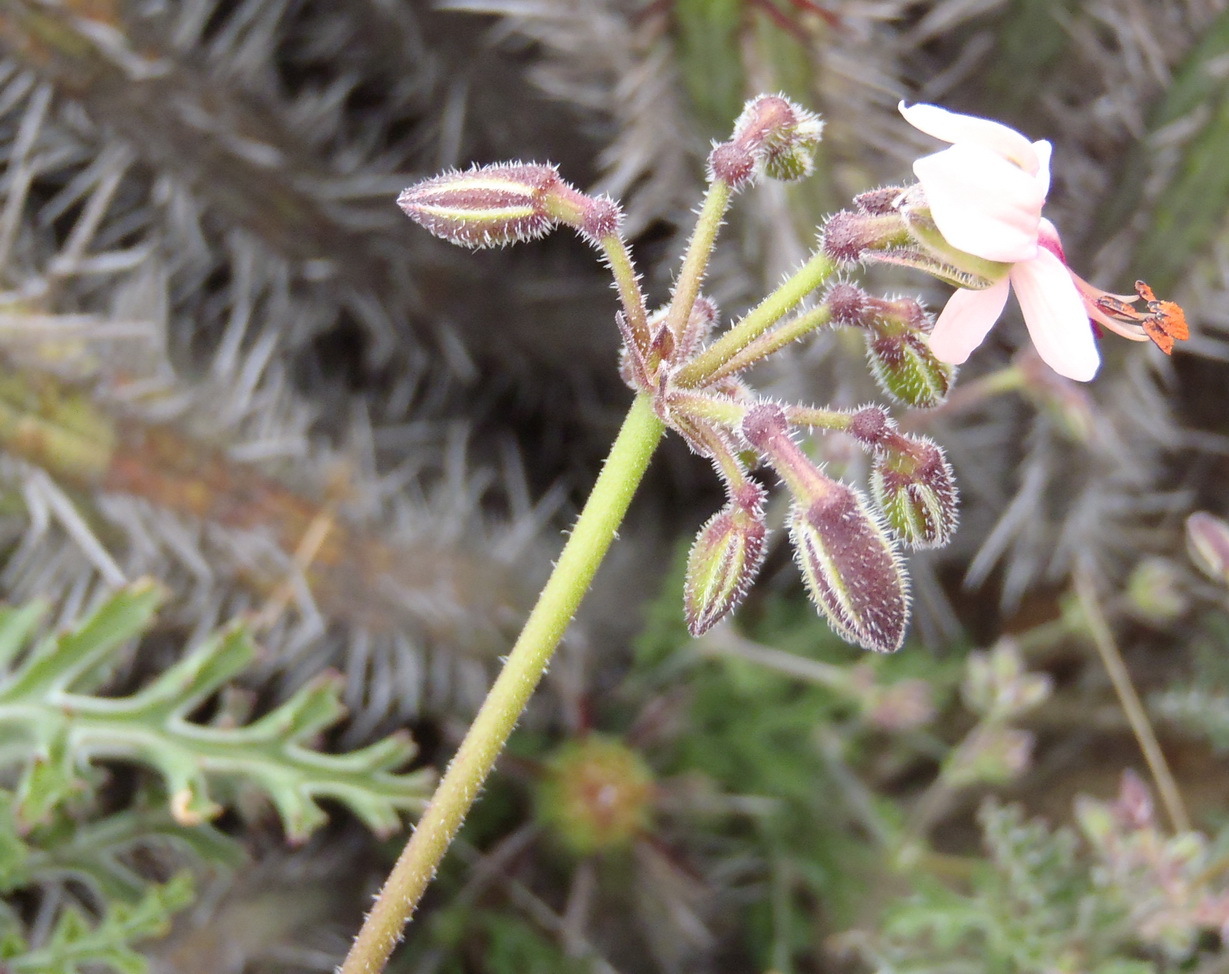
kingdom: Plantae
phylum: Tracheophyta
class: Magnoliopsida
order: Geraniales
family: Geraniaceae
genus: Pelargonium
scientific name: Pelargonium laxum
